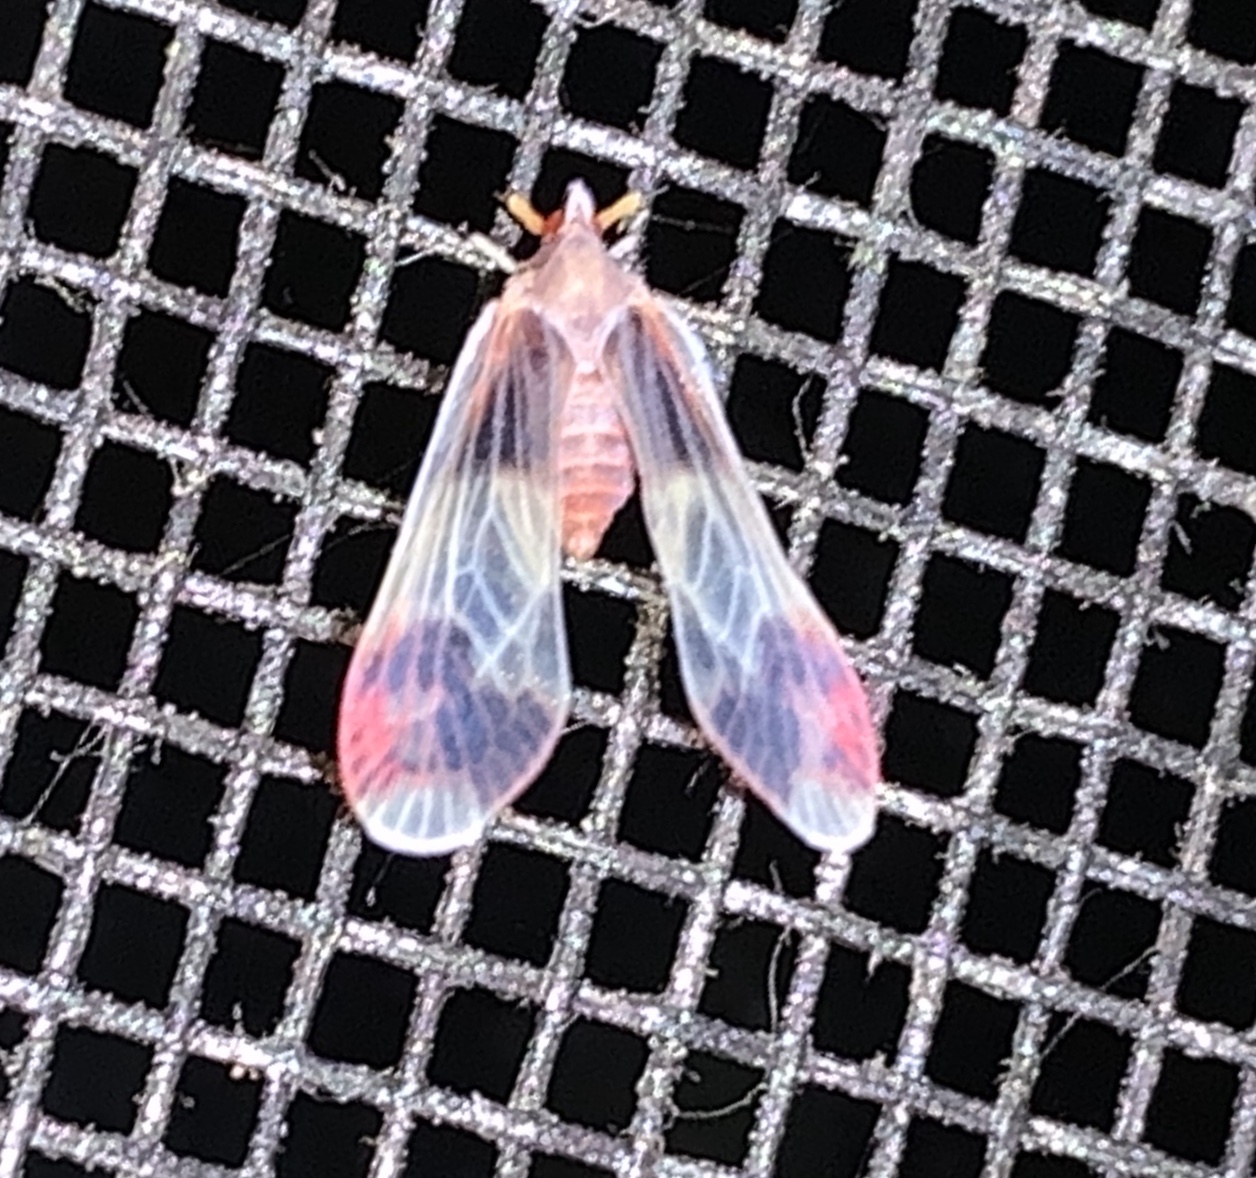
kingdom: Animalia
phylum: Arthropoda
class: Insecta
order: Hemiptera
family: Derbidae
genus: Anotia
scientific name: Anotia uhleri
